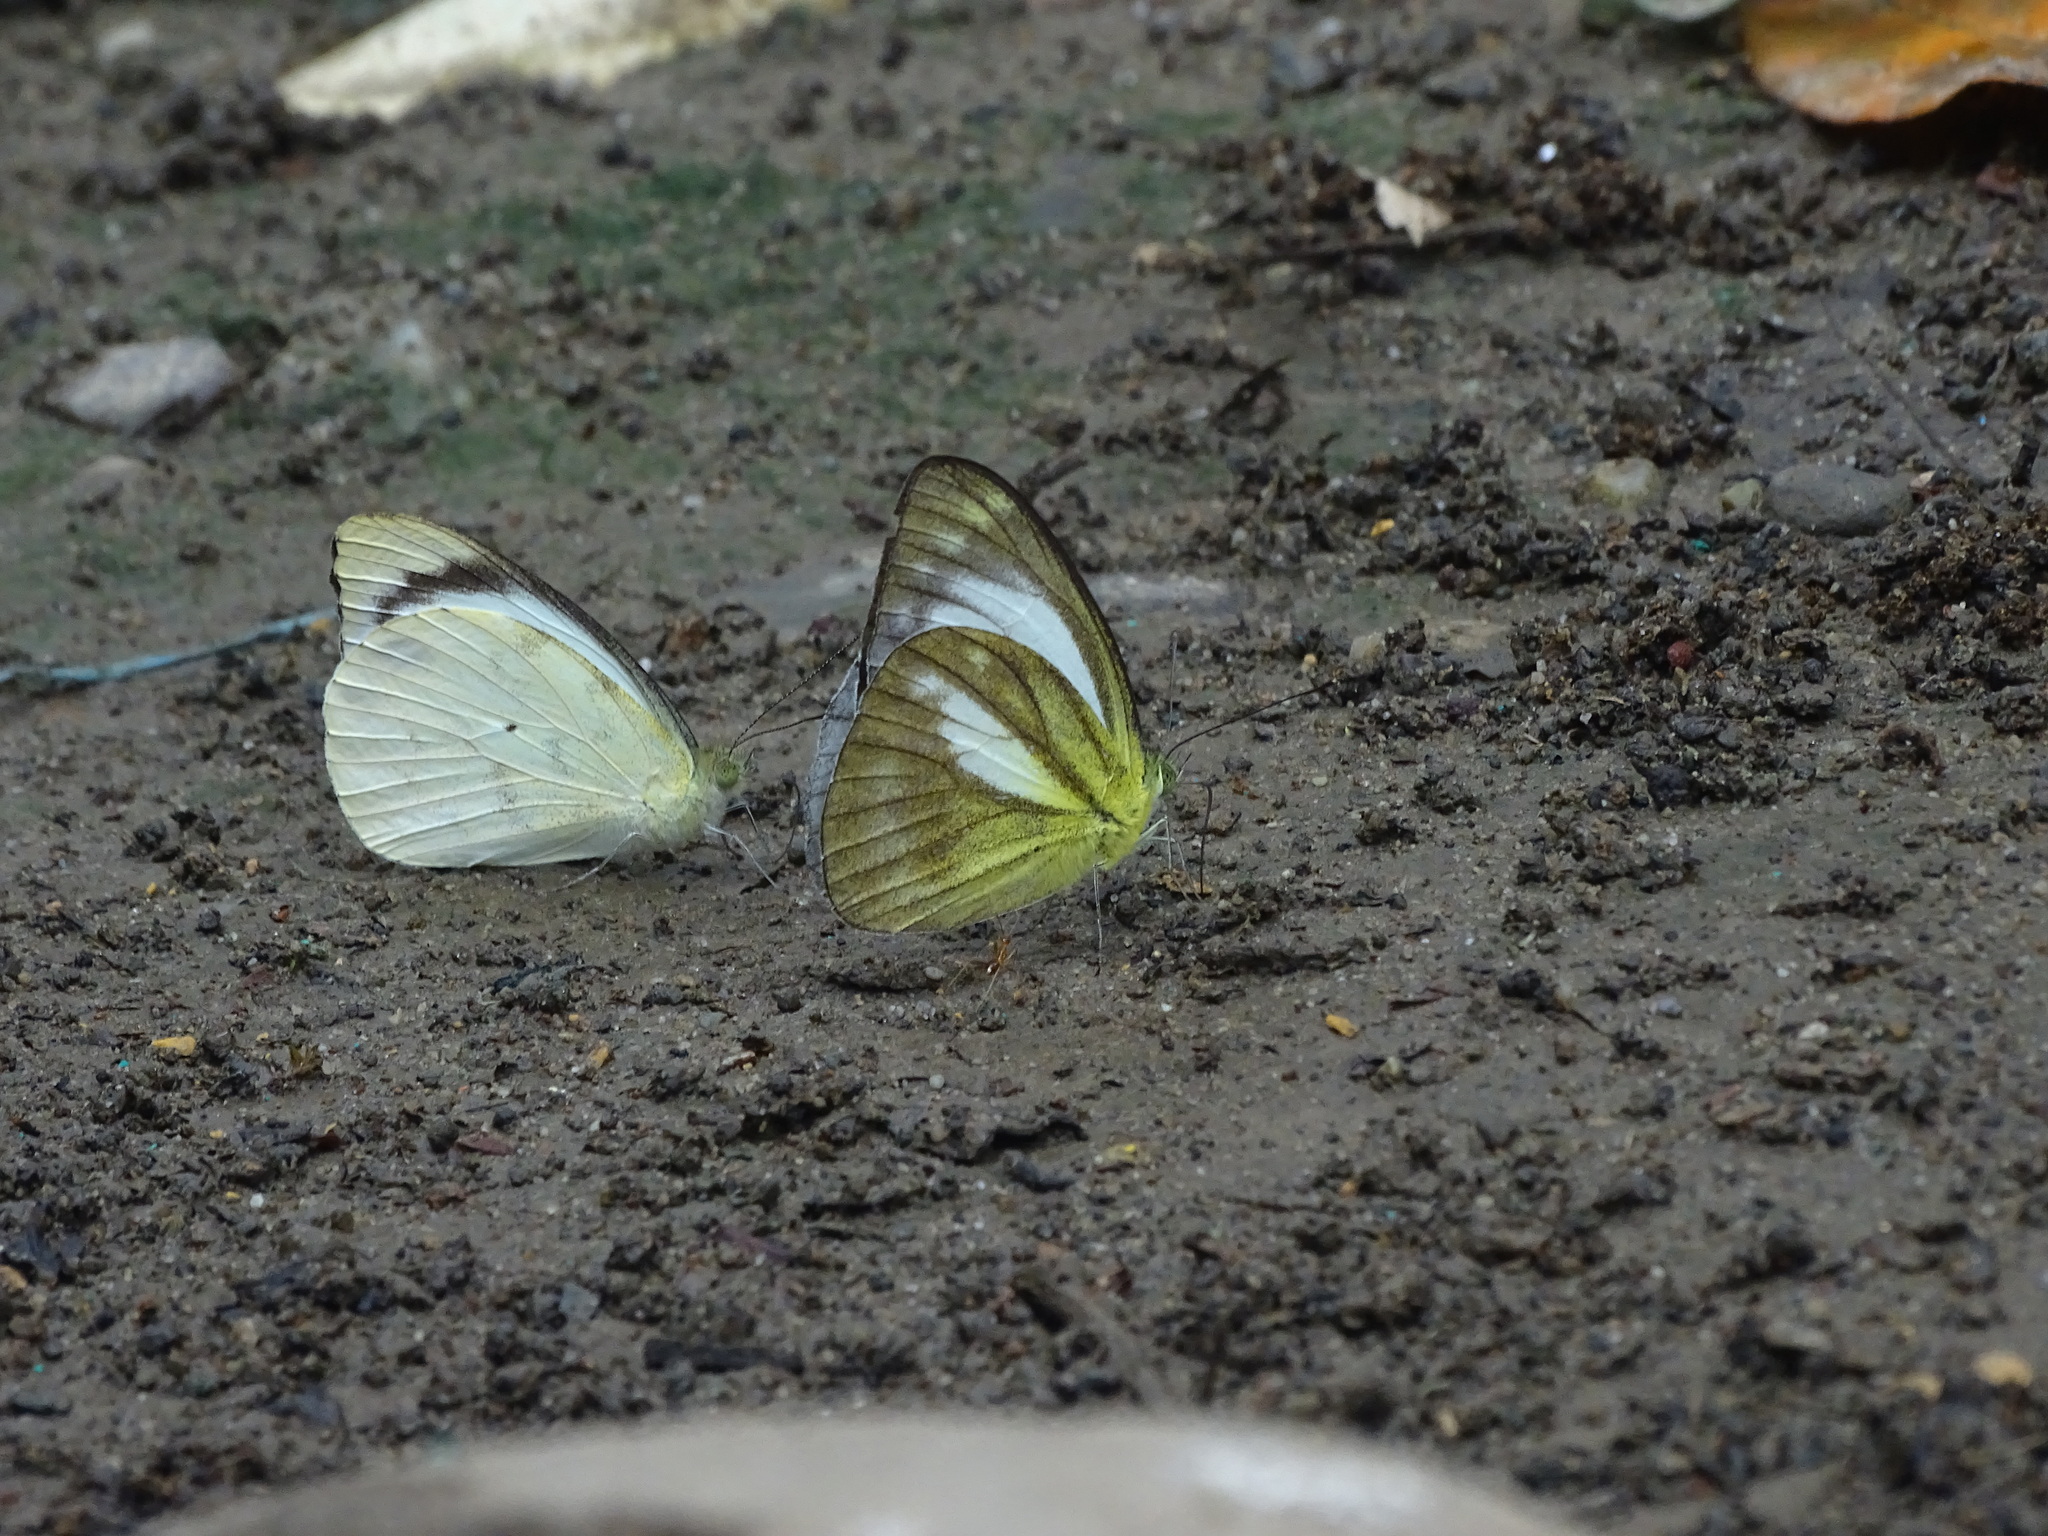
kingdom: Animalia
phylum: Arthropoda
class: Insecta
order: Lepidoptera
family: Pieridae
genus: Cepora
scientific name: Cepora nadina
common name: Lesser gull
